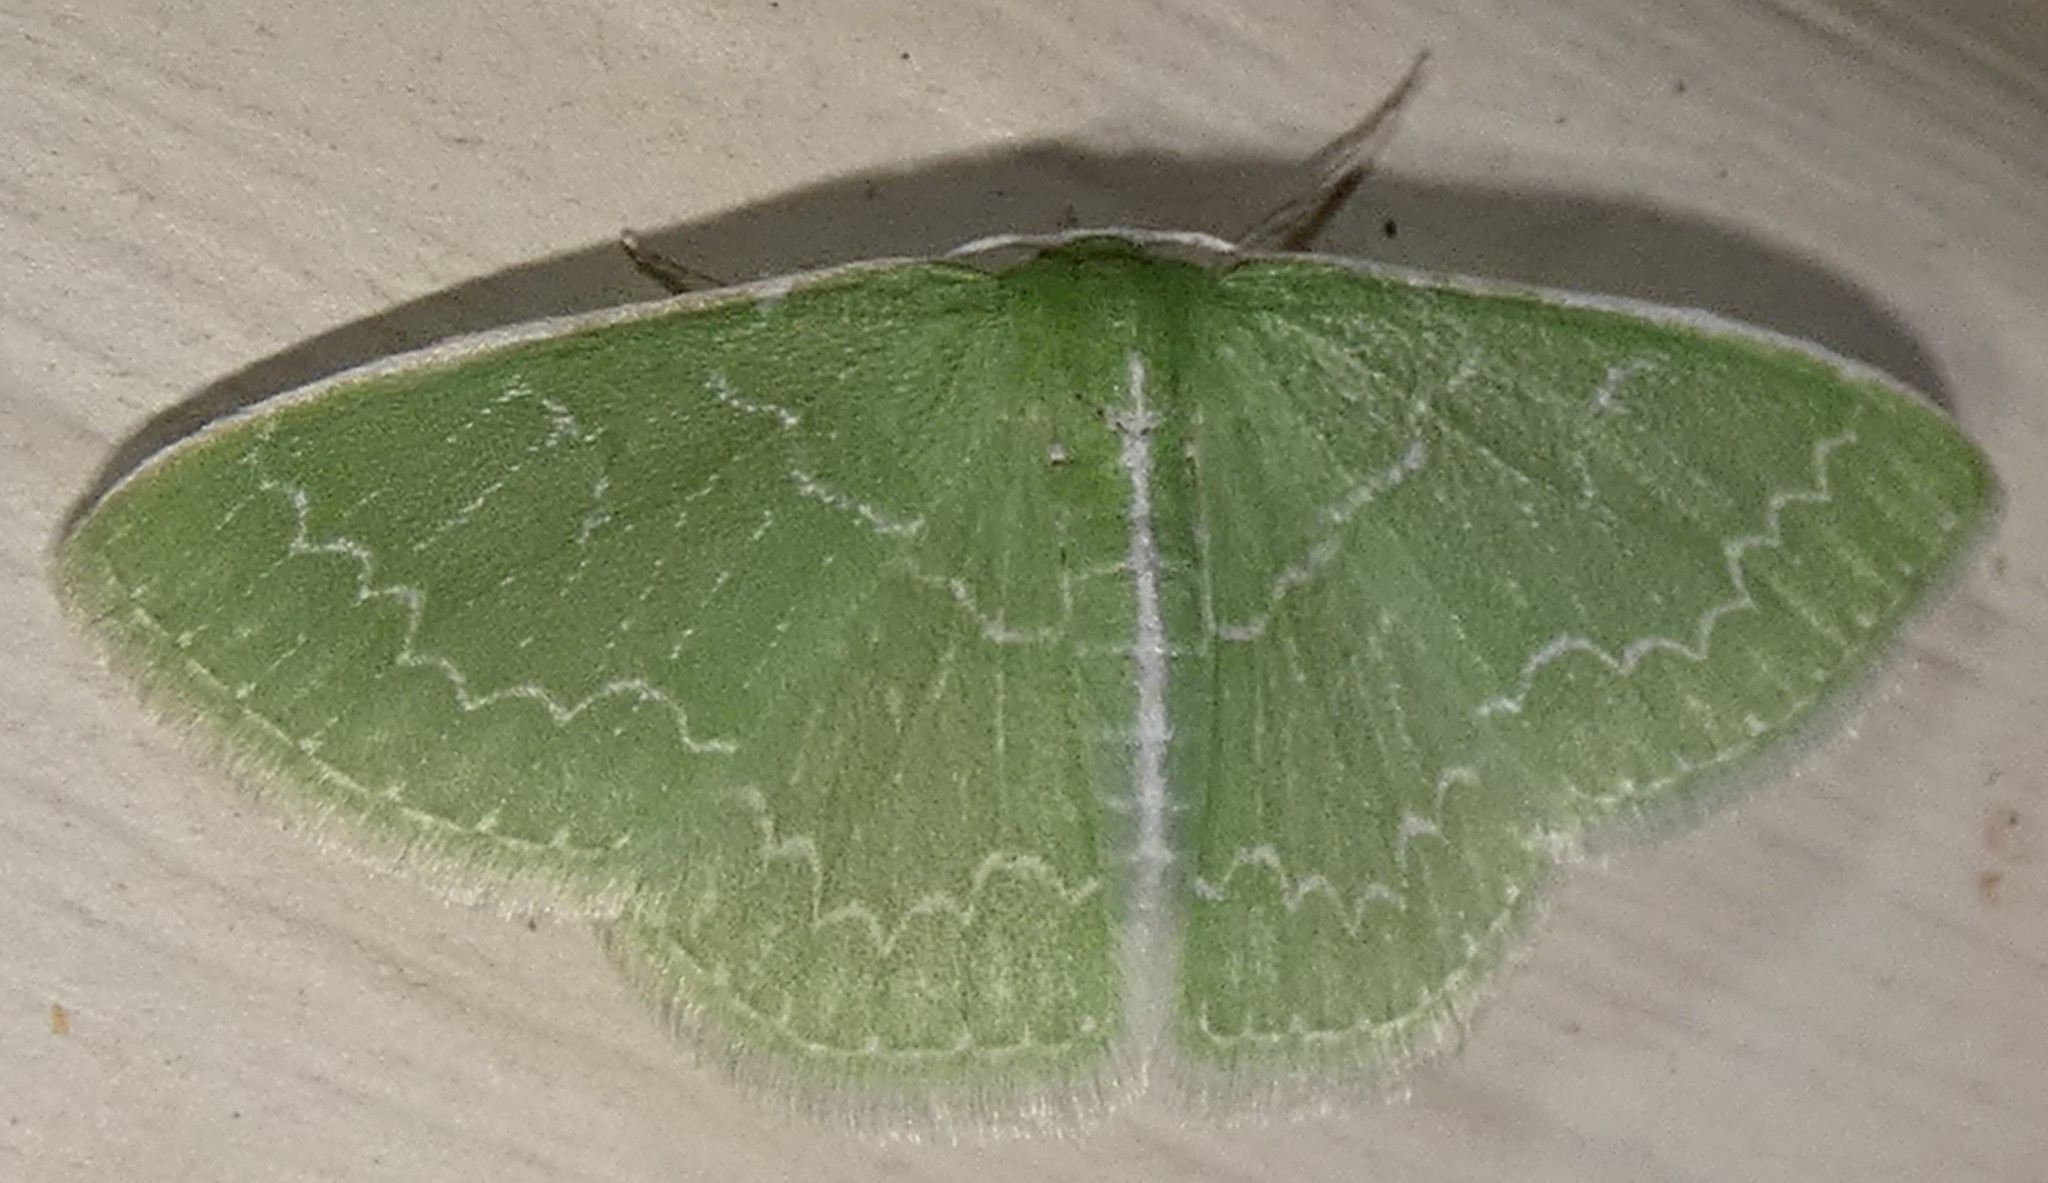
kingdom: Animalia
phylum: Arthropoda
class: Insecta
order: Lepidoptera
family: Geometridae
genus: Synchlora
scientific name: Synchlora frondaria
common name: Southern emerald
